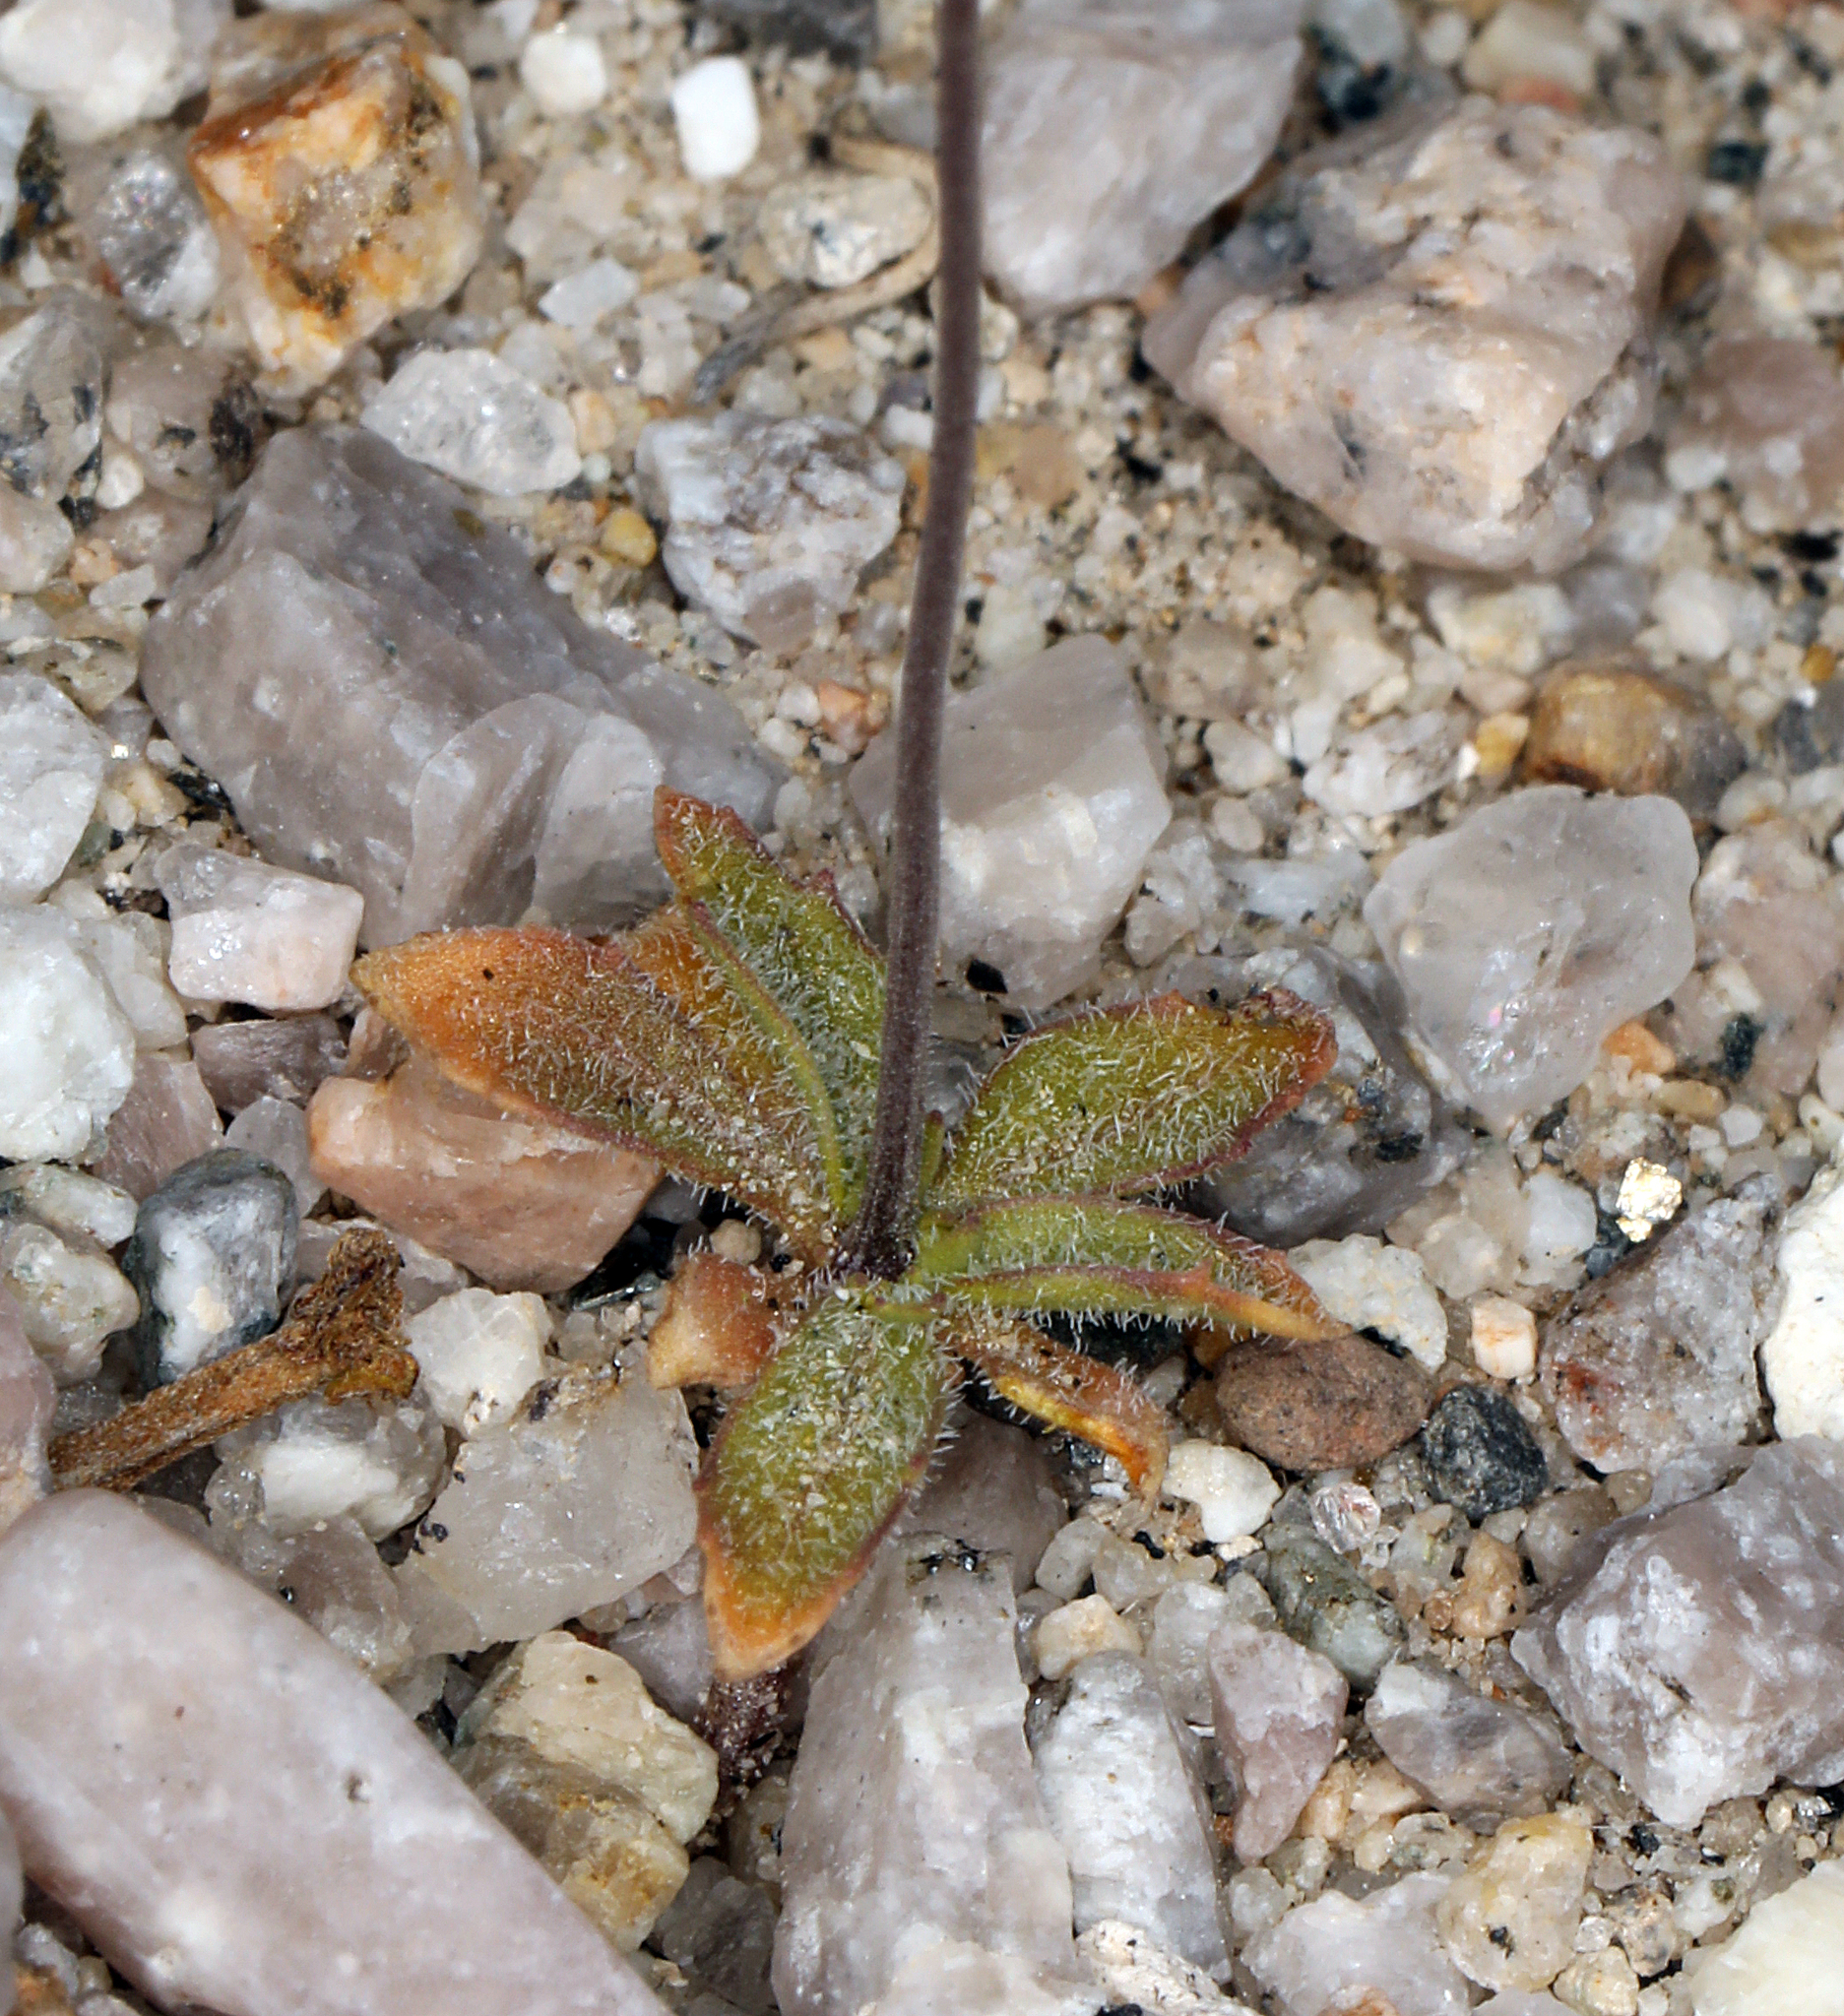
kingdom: Plantae
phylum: Tracheophyta
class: Magnoliopsida
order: Asterales
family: Campanulaceae
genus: Nemacladus
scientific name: Nemacladus eastwoodiae
